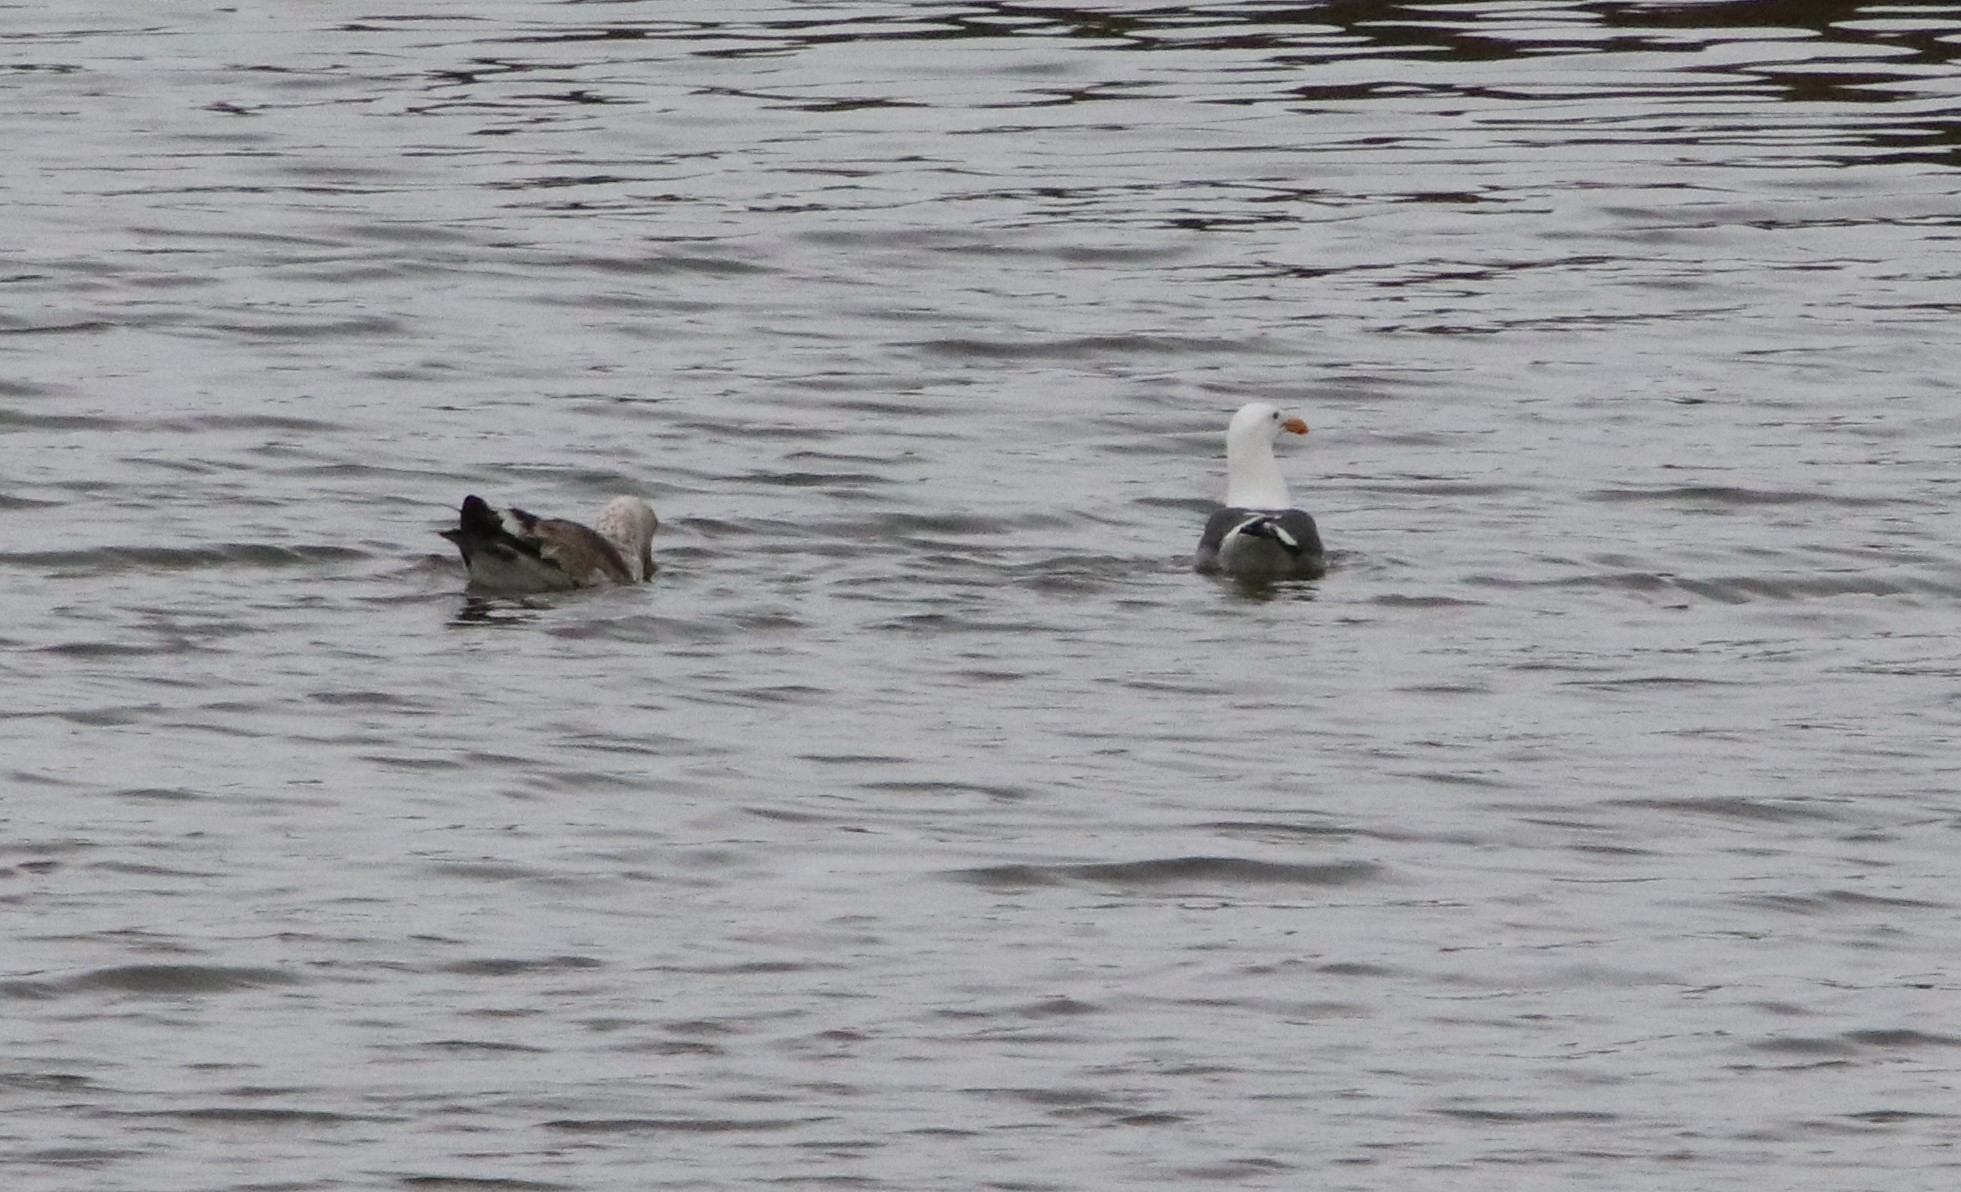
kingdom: Animalia
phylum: Chordata
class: Aves
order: Charadriiformes
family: Laridae
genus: Larus
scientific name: Larus occidentalis
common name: Western gull
